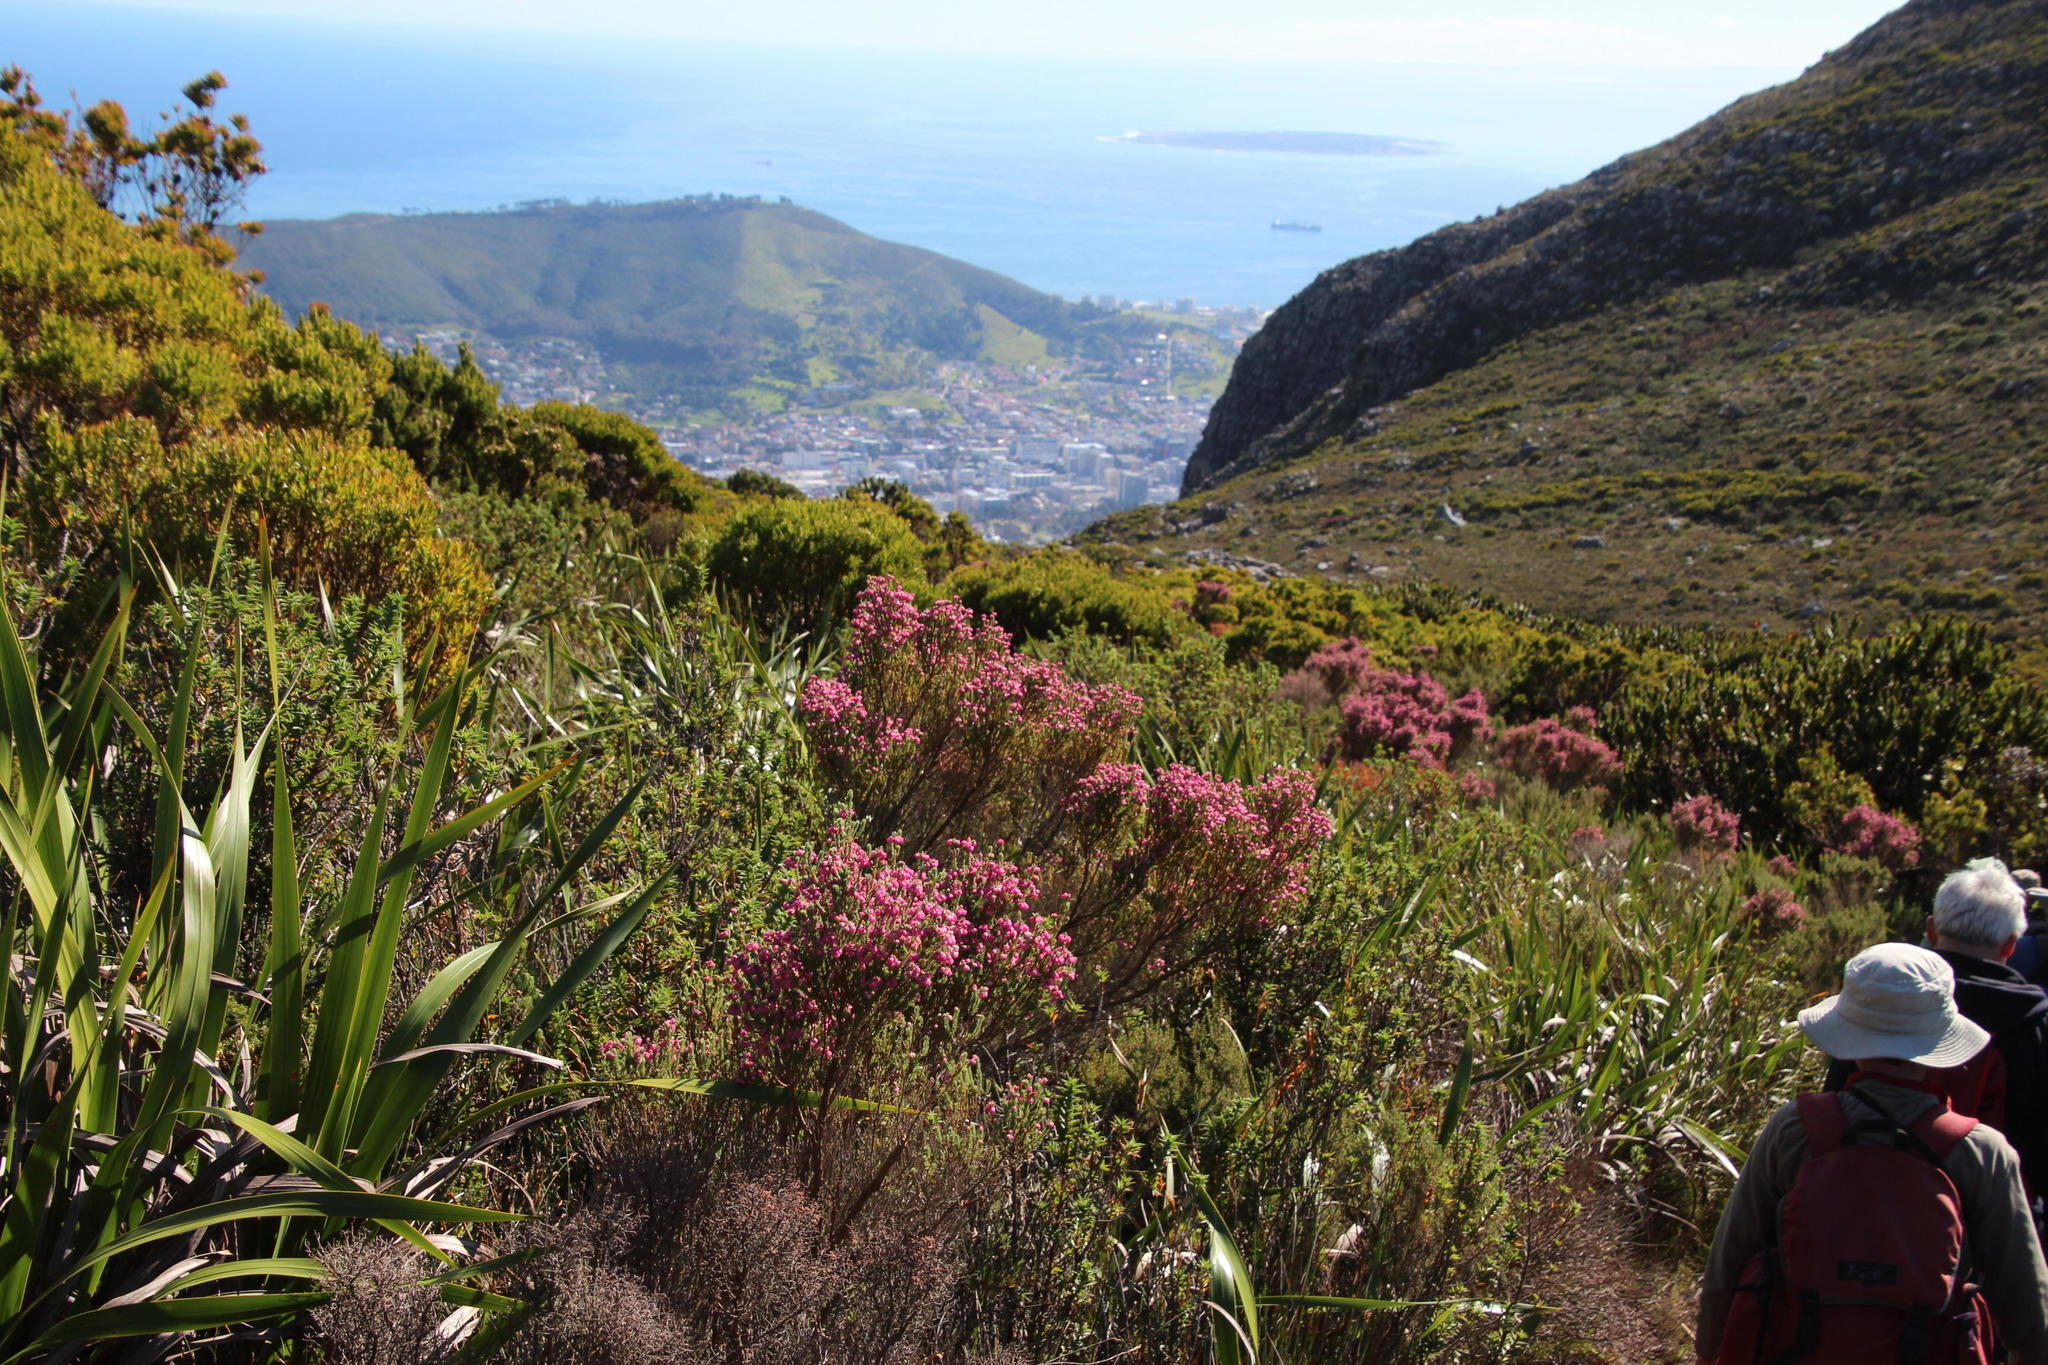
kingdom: Plantae
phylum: Tracheophyta
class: Magnoliopsida
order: Ericales
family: Ericaceae
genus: Erica
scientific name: Erica baccans
